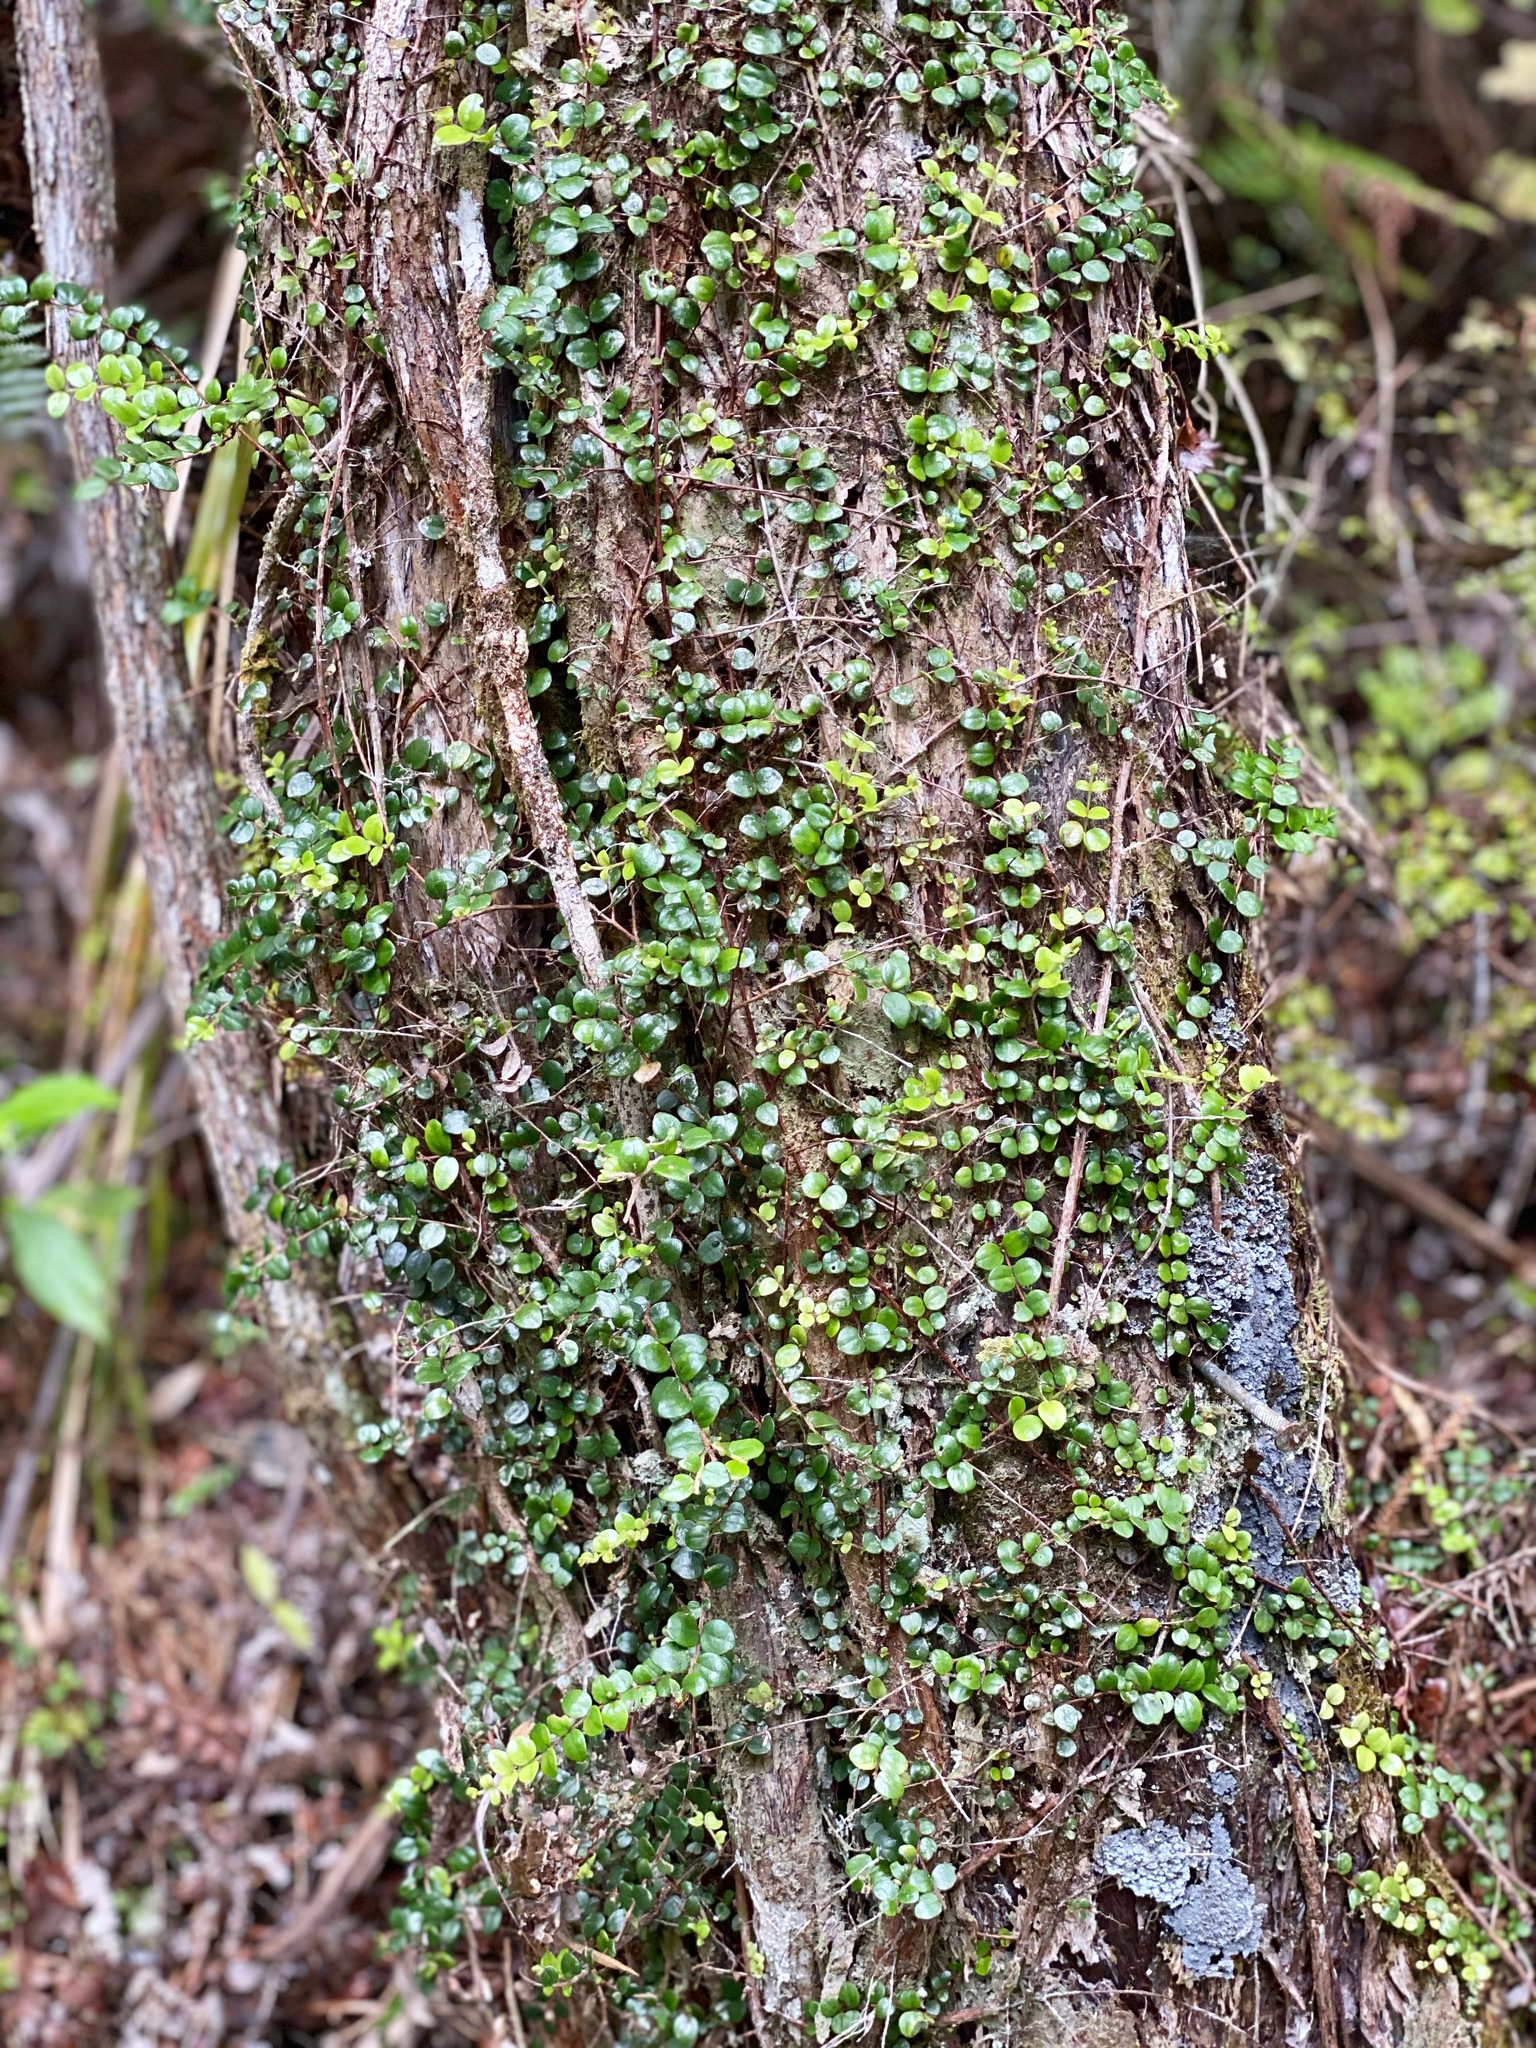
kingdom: Plantae
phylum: Tracheophyta
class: Magnoliopsida
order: Myrtales
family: Myrtaceae
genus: Metrosideros
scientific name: Metrosideros perforata
